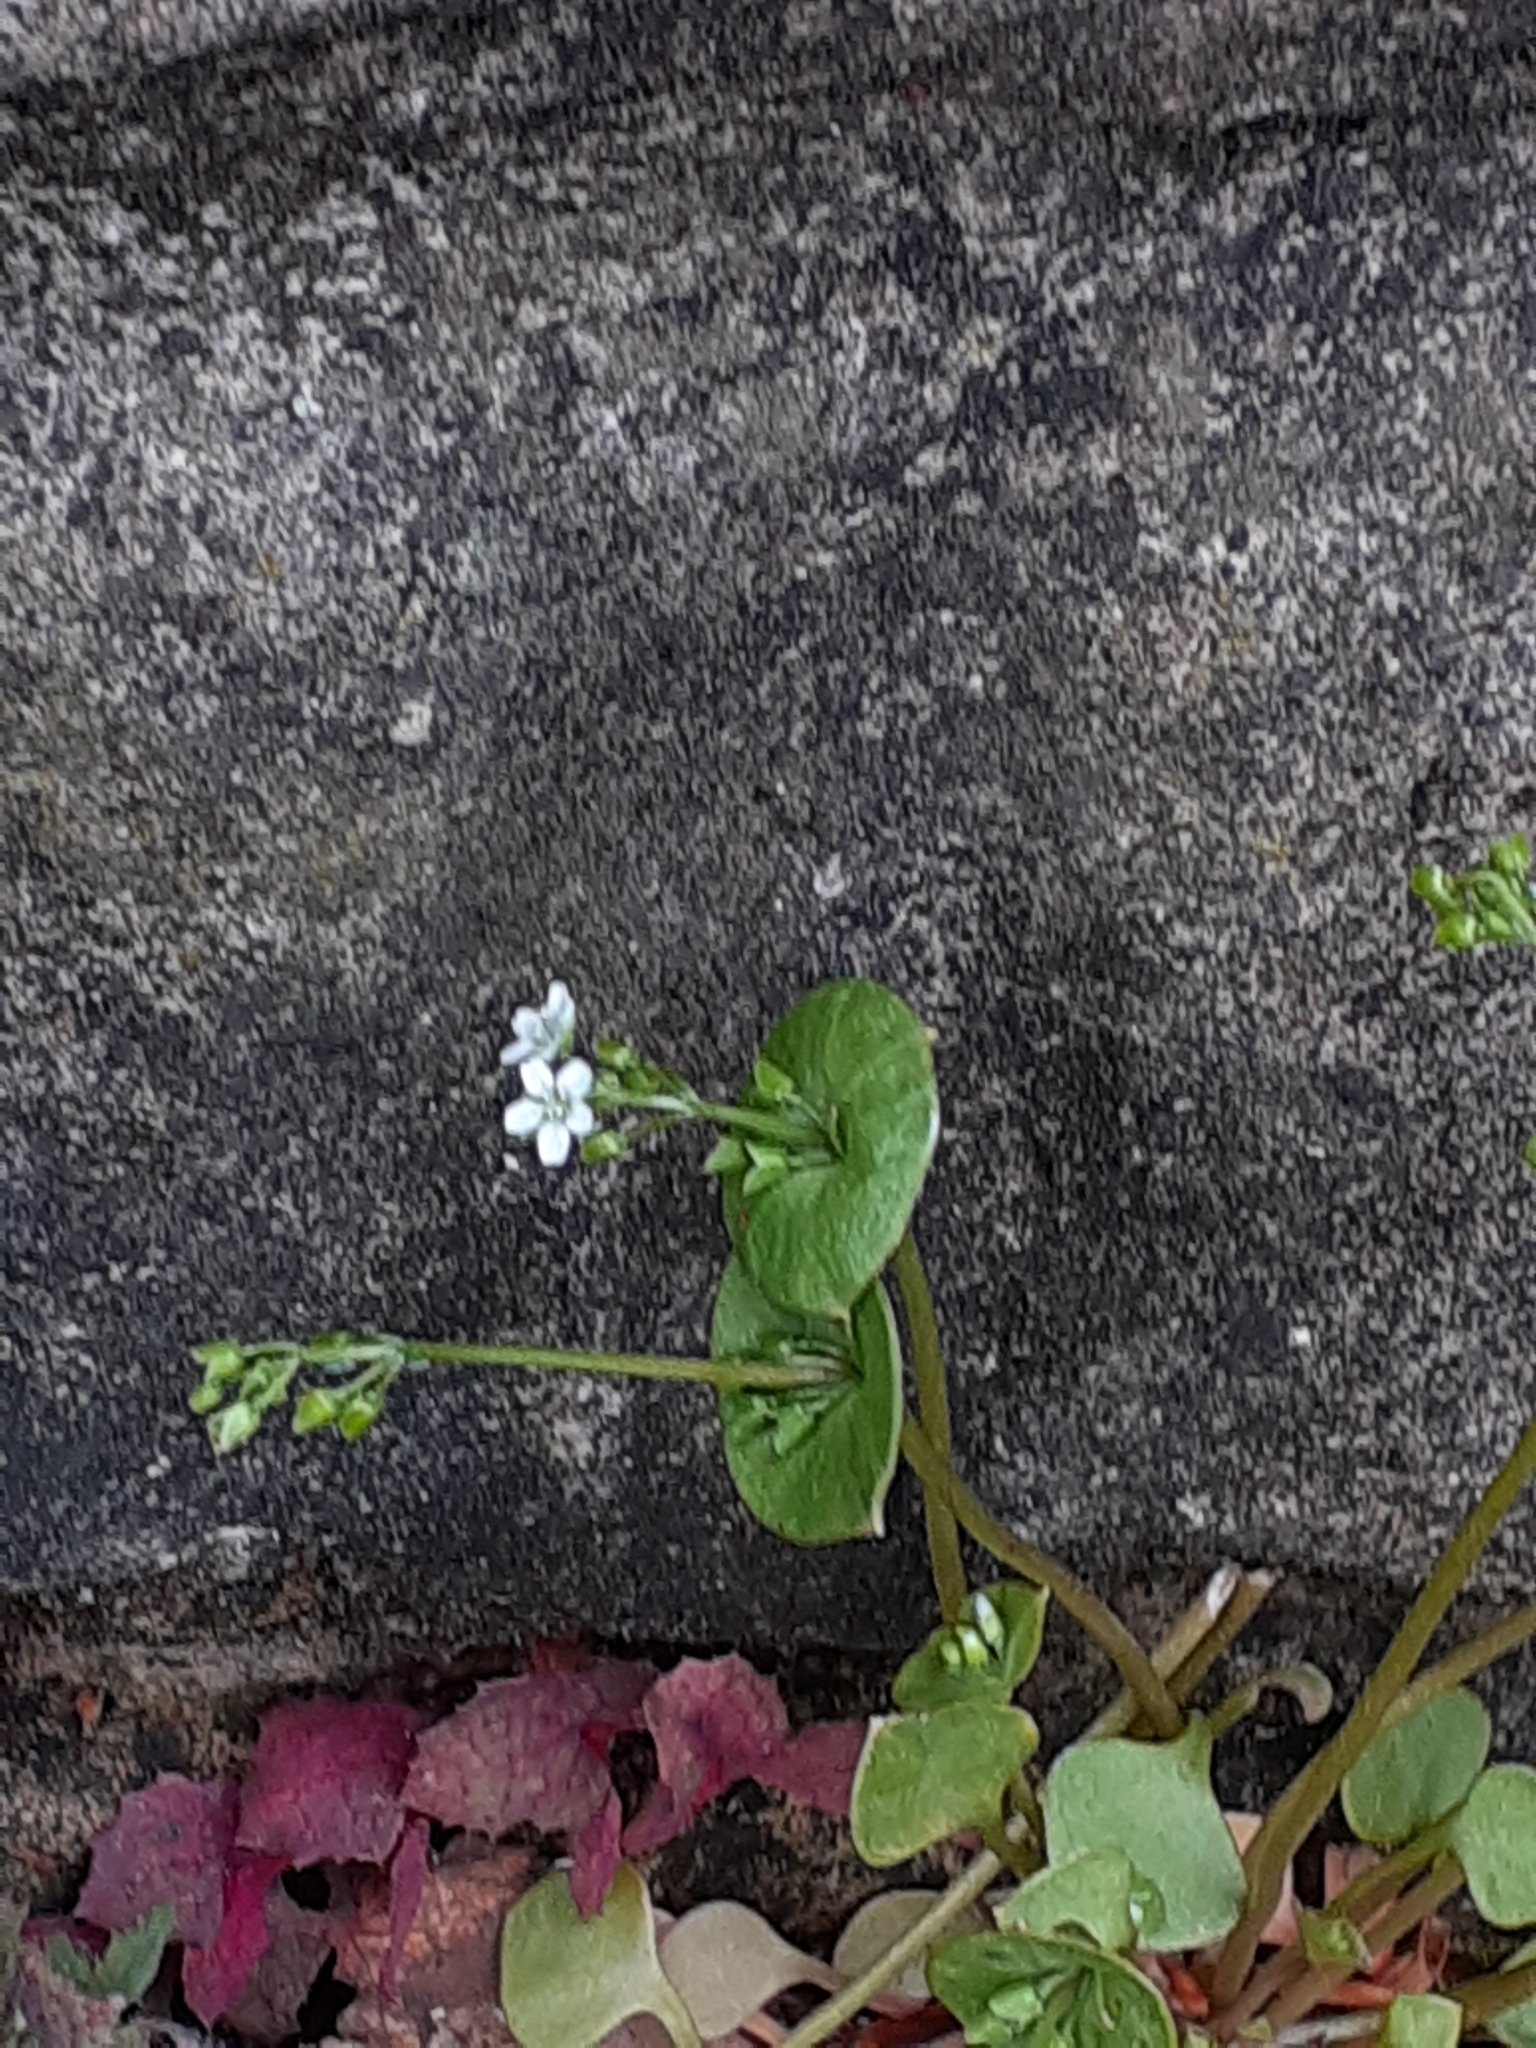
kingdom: Plantae
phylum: Tracheophyta
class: Magnoliopsida
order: Caryophyllales
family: Montiaceae
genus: Claytonia
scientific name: Claytonia perfoliata
